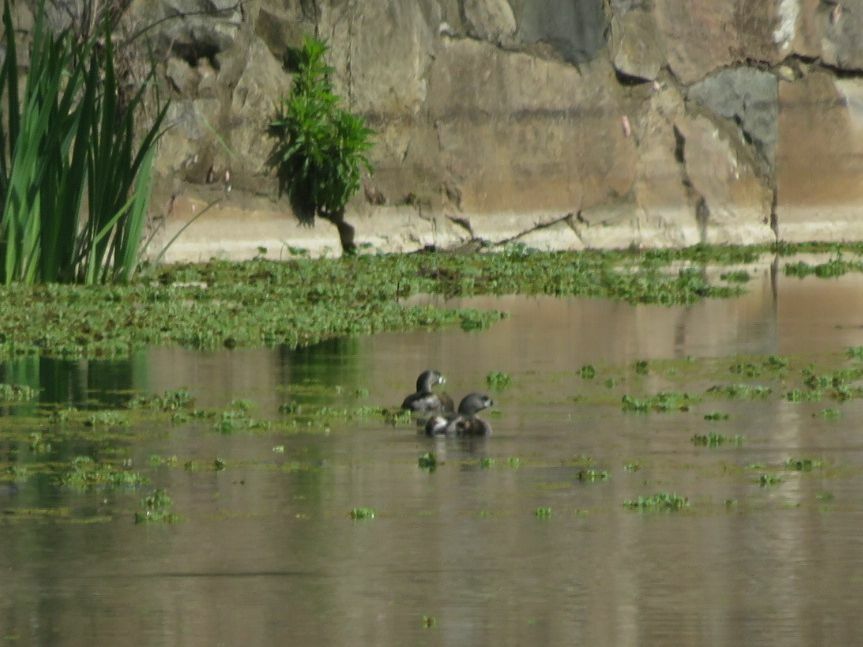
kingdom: Animalia
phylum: Chordata
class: Aves
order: Podicipediformes
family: Podicipedidae
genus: Podilymbus
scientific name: Podilymbus podiceps
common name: Pied-billed grebe
